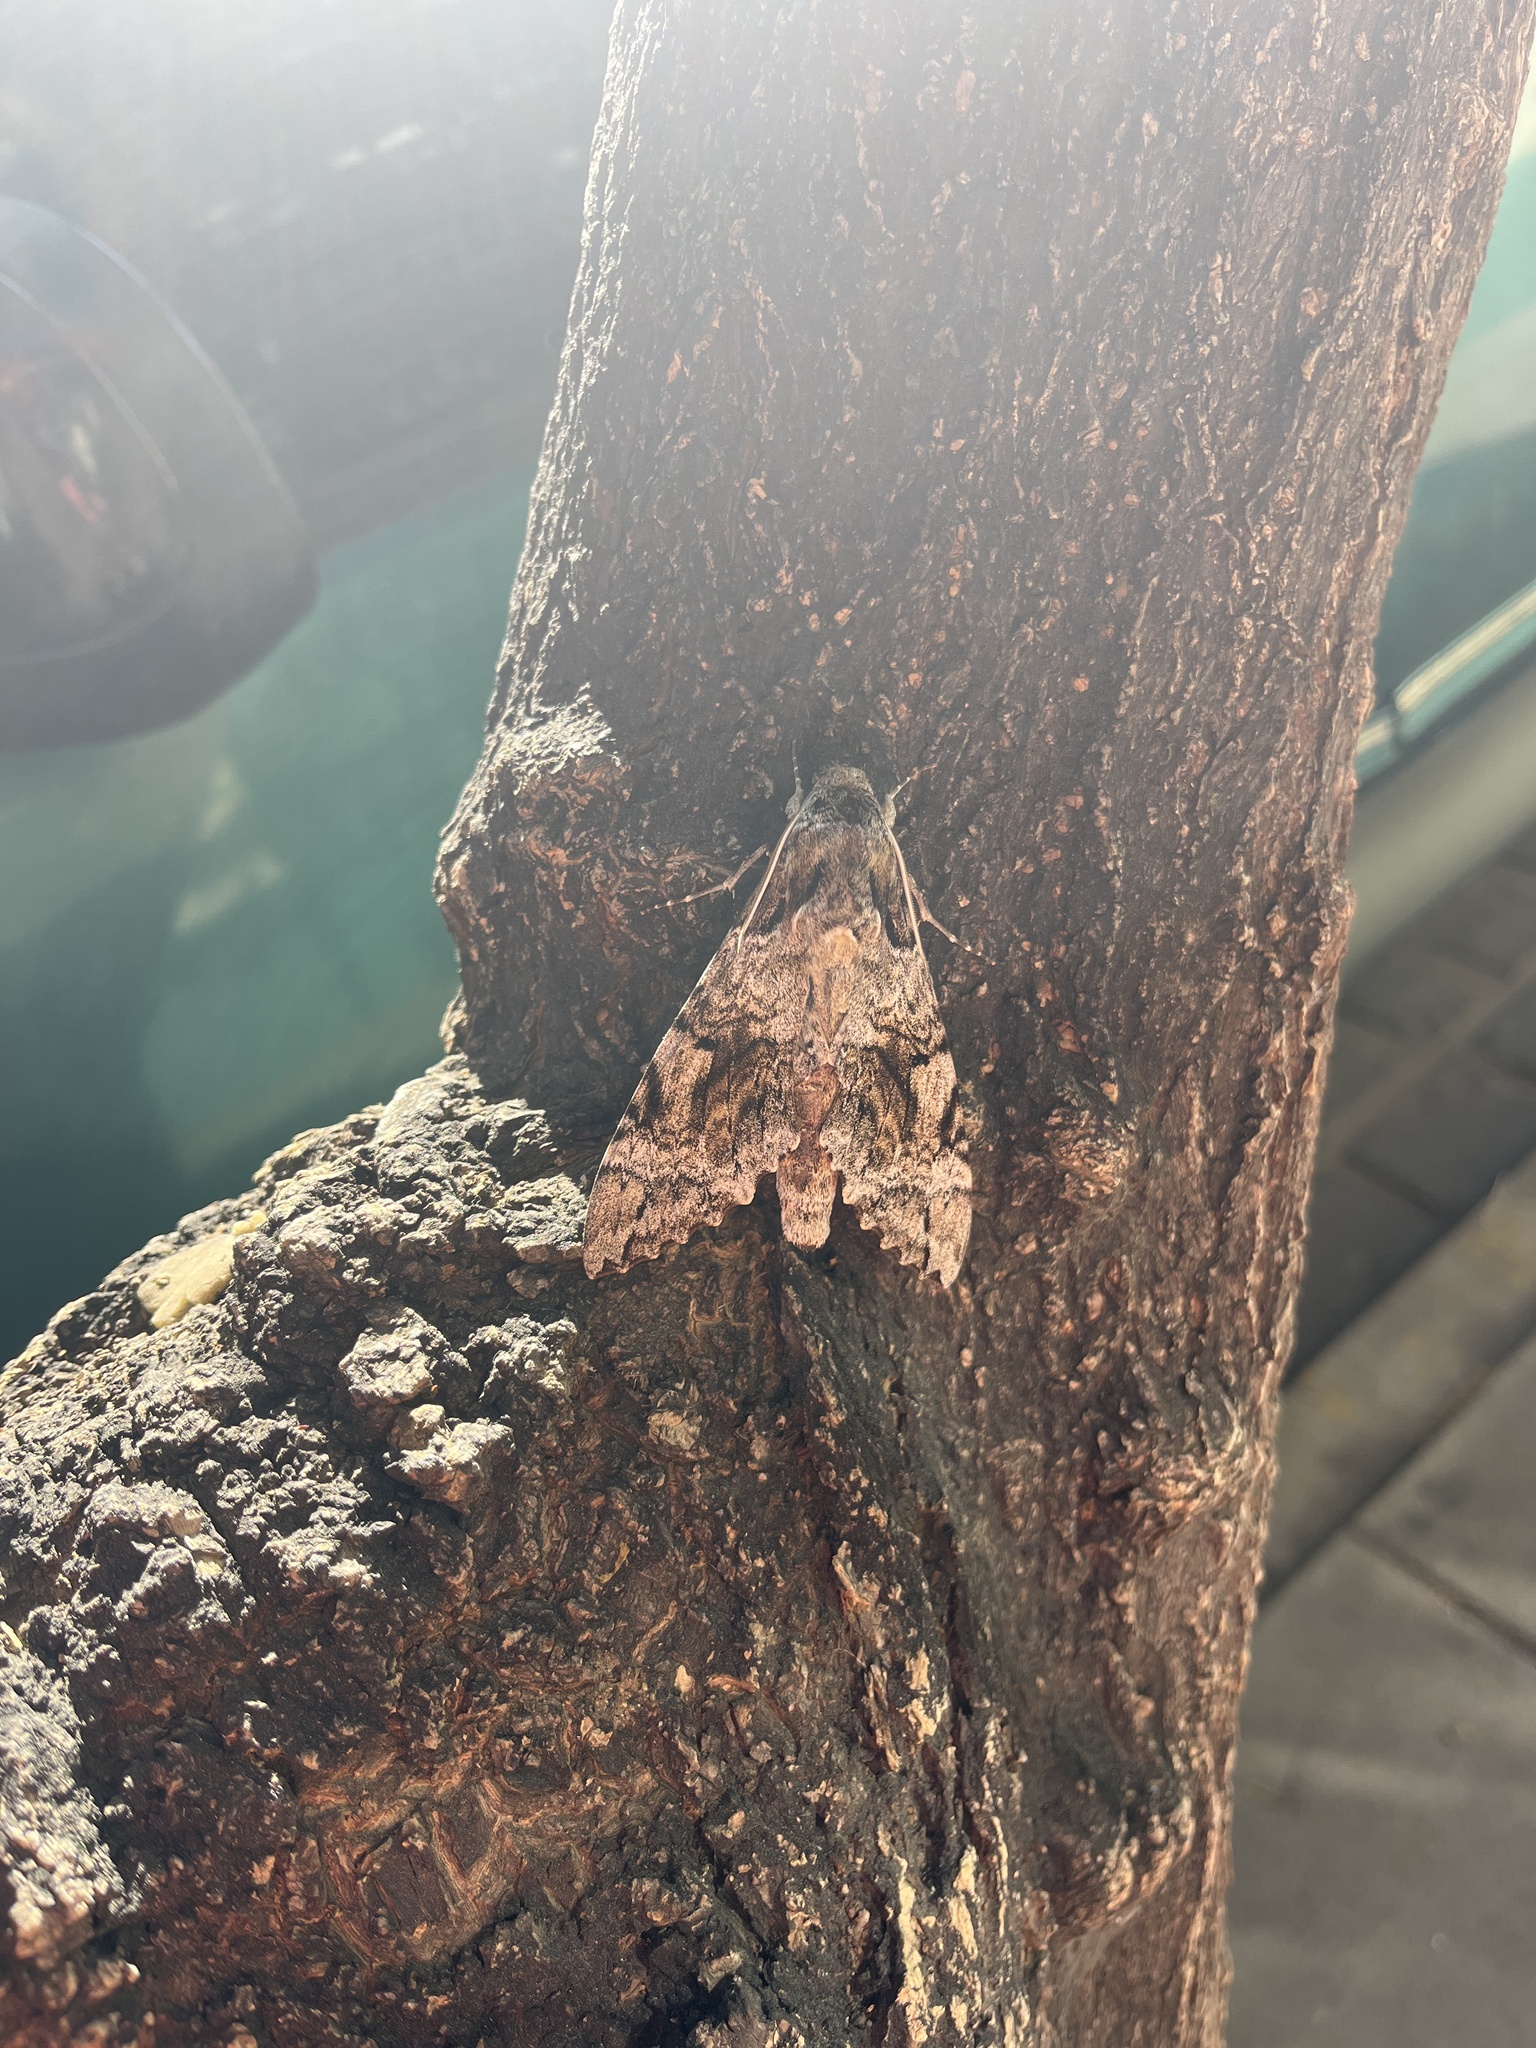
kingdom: Animalia
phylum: Arthropoda
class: Insecta
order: Lepidoptera
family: Sphingidae
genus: Pseudosphinx
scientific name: Pseudosphinx tetrio
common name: Tetrio sphinx
